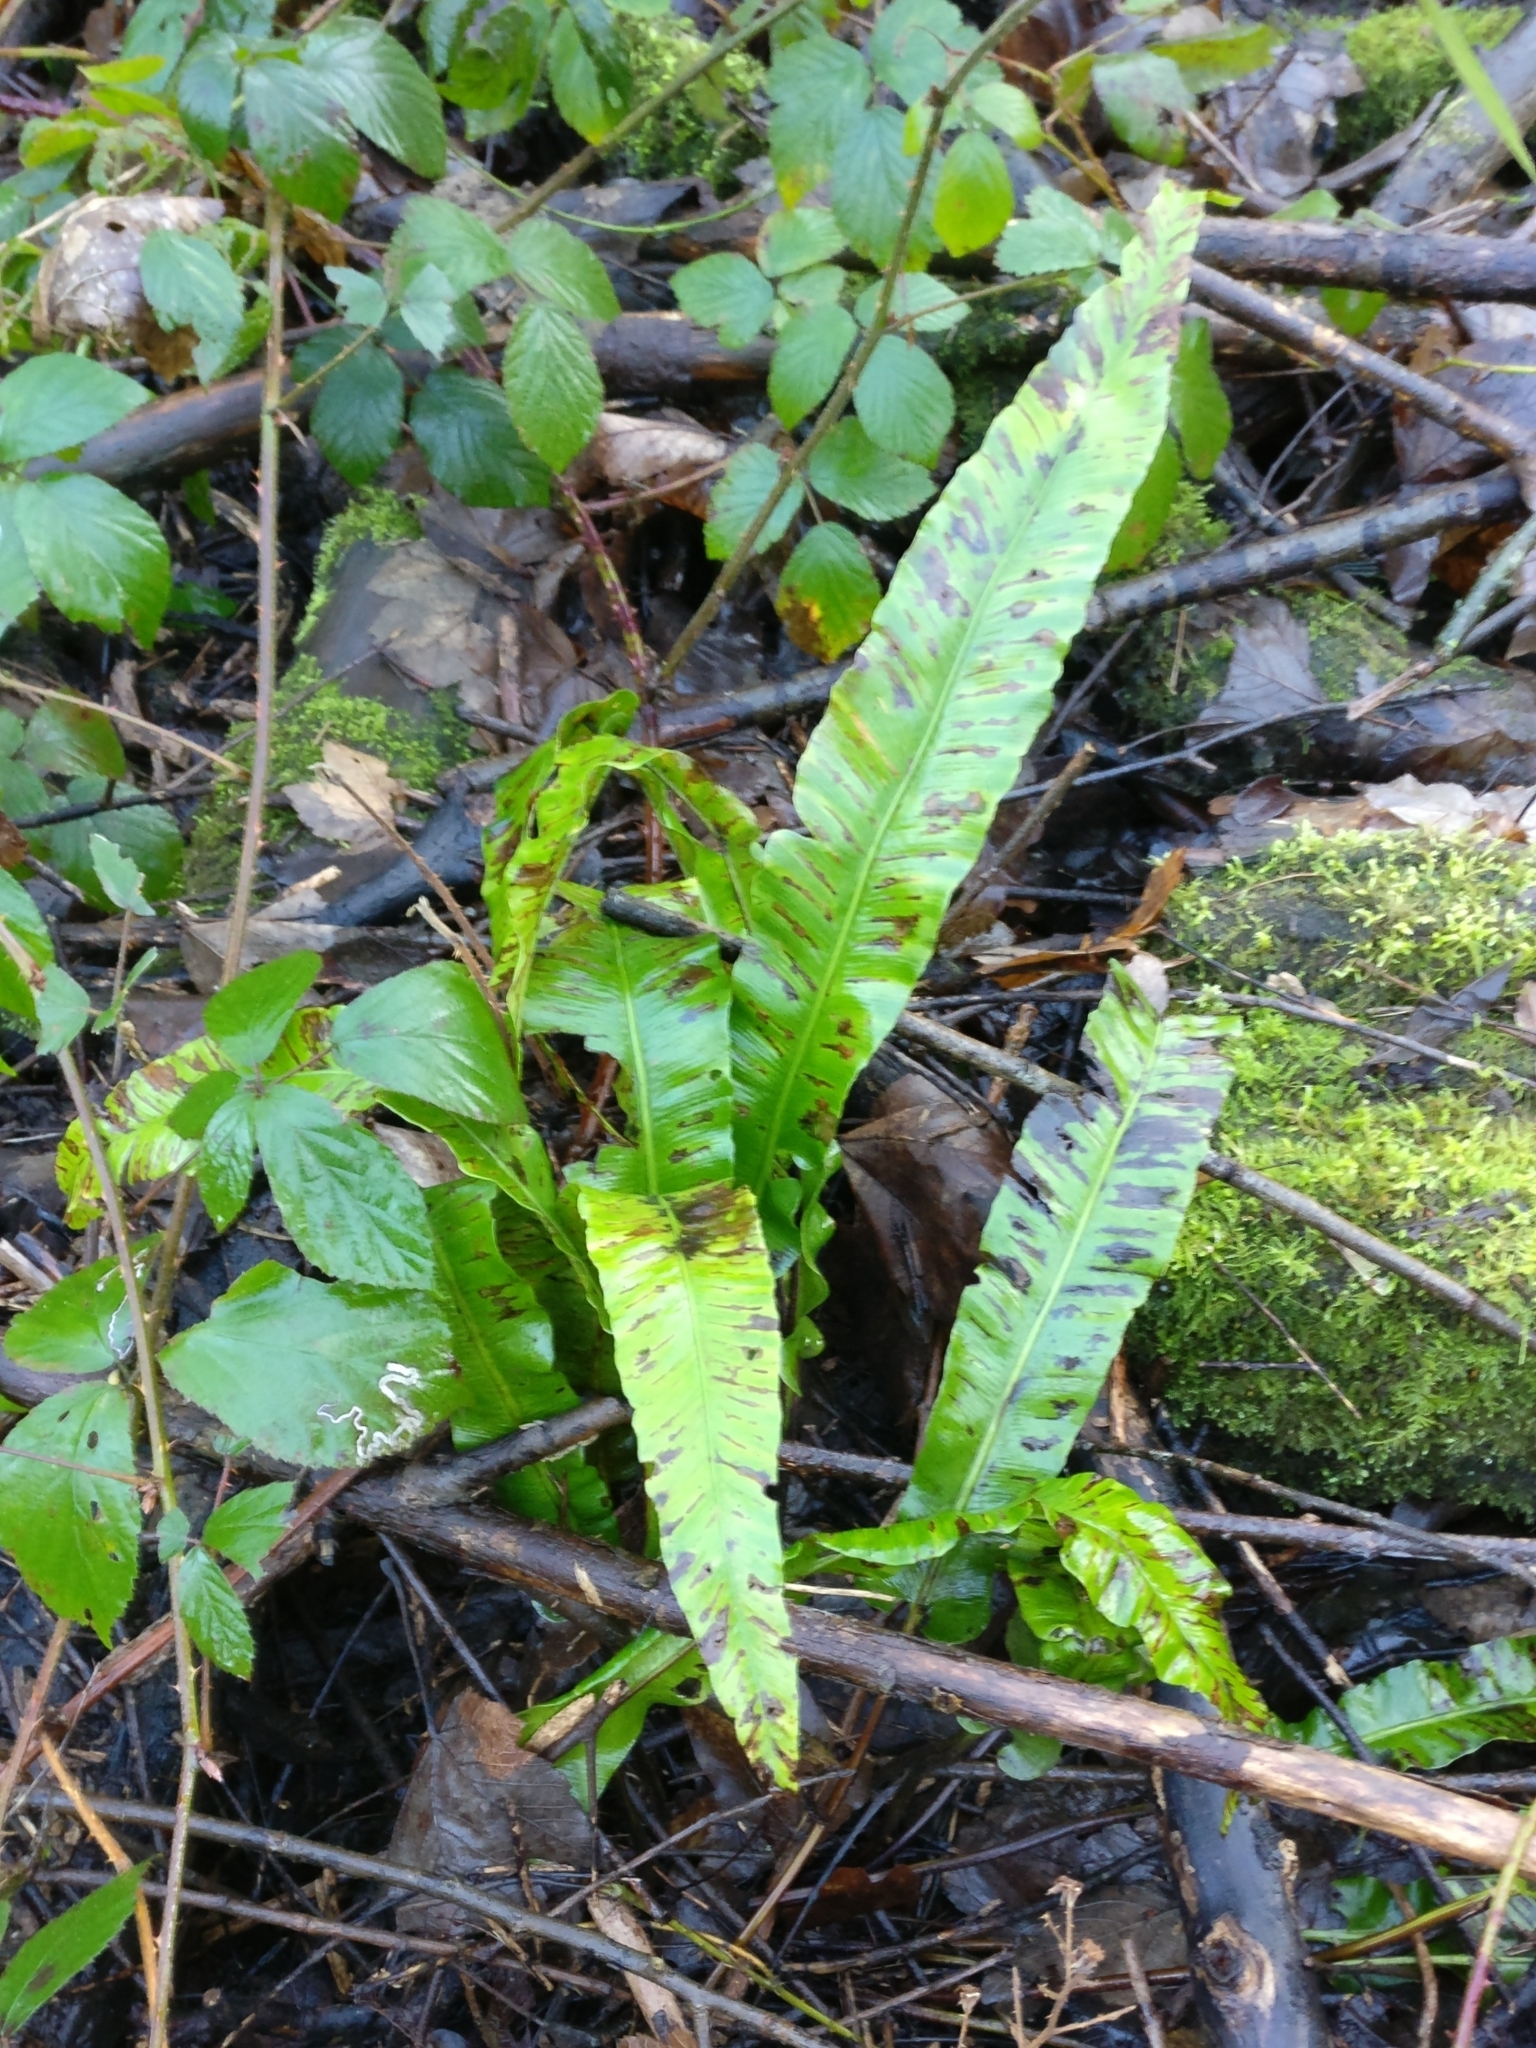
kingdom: Plantae
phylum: Tracheophyta
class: Polypodiopsida
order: Polypodiales
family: Aspleniaceae
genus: Asplenium
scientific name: Asplenium scolopendrium
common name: Hart's-tongue fern
